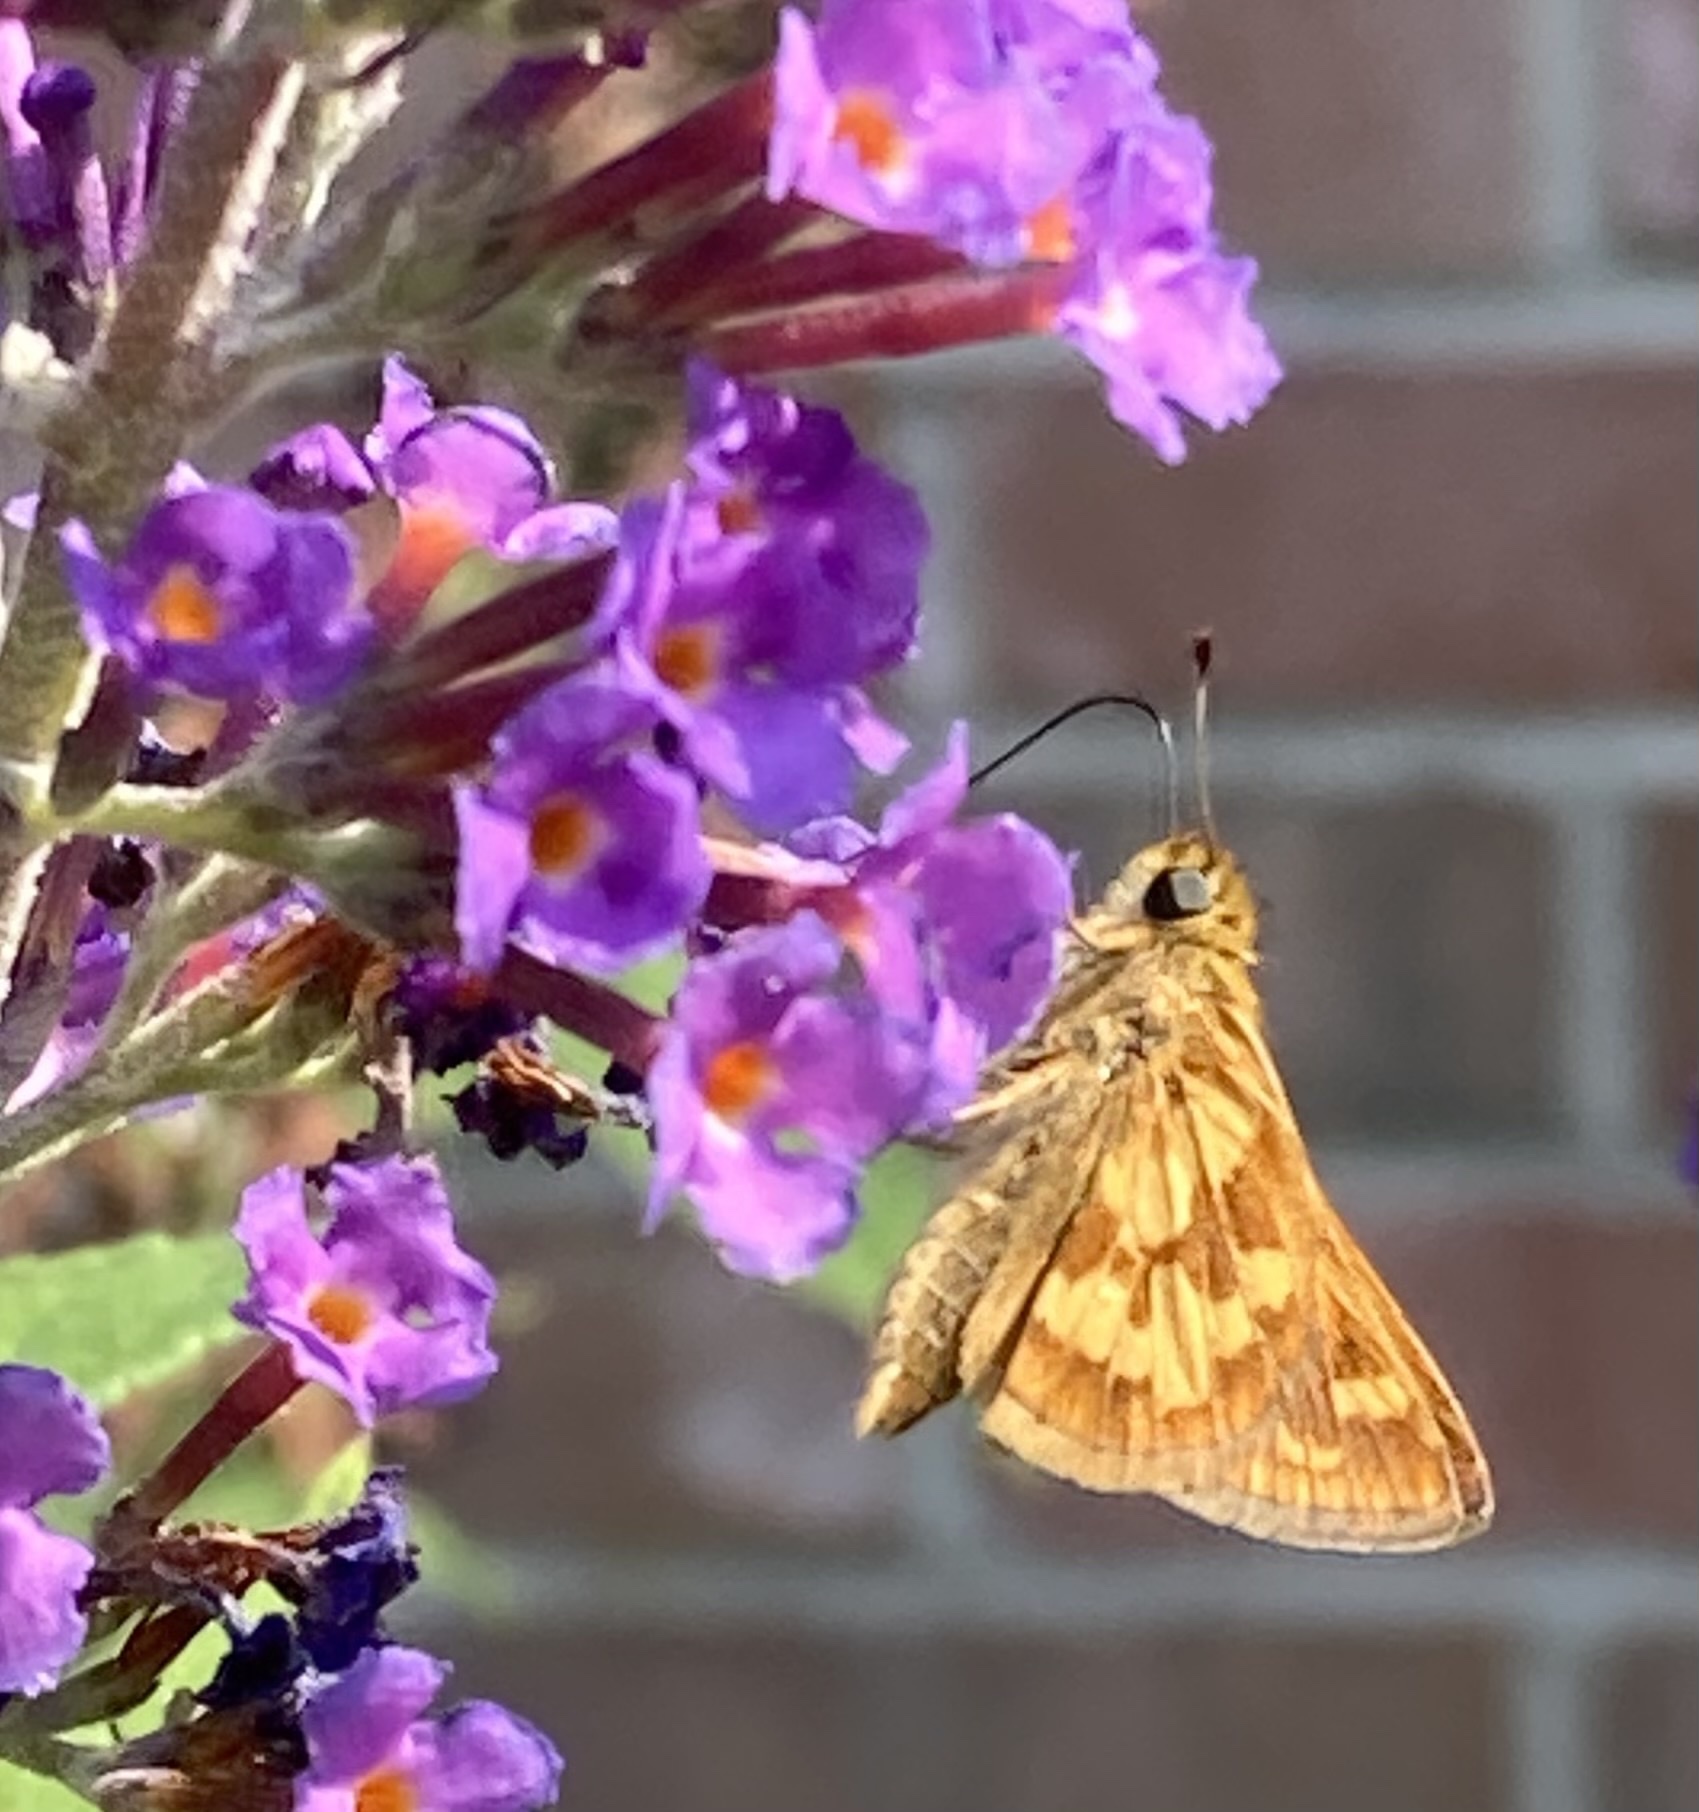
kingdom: Animalia
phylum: Arthropoda
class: Insecta
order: Lepidoptera
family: Hesperiidae
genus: Polites
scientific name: Polites coras
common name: Peck's skipper
